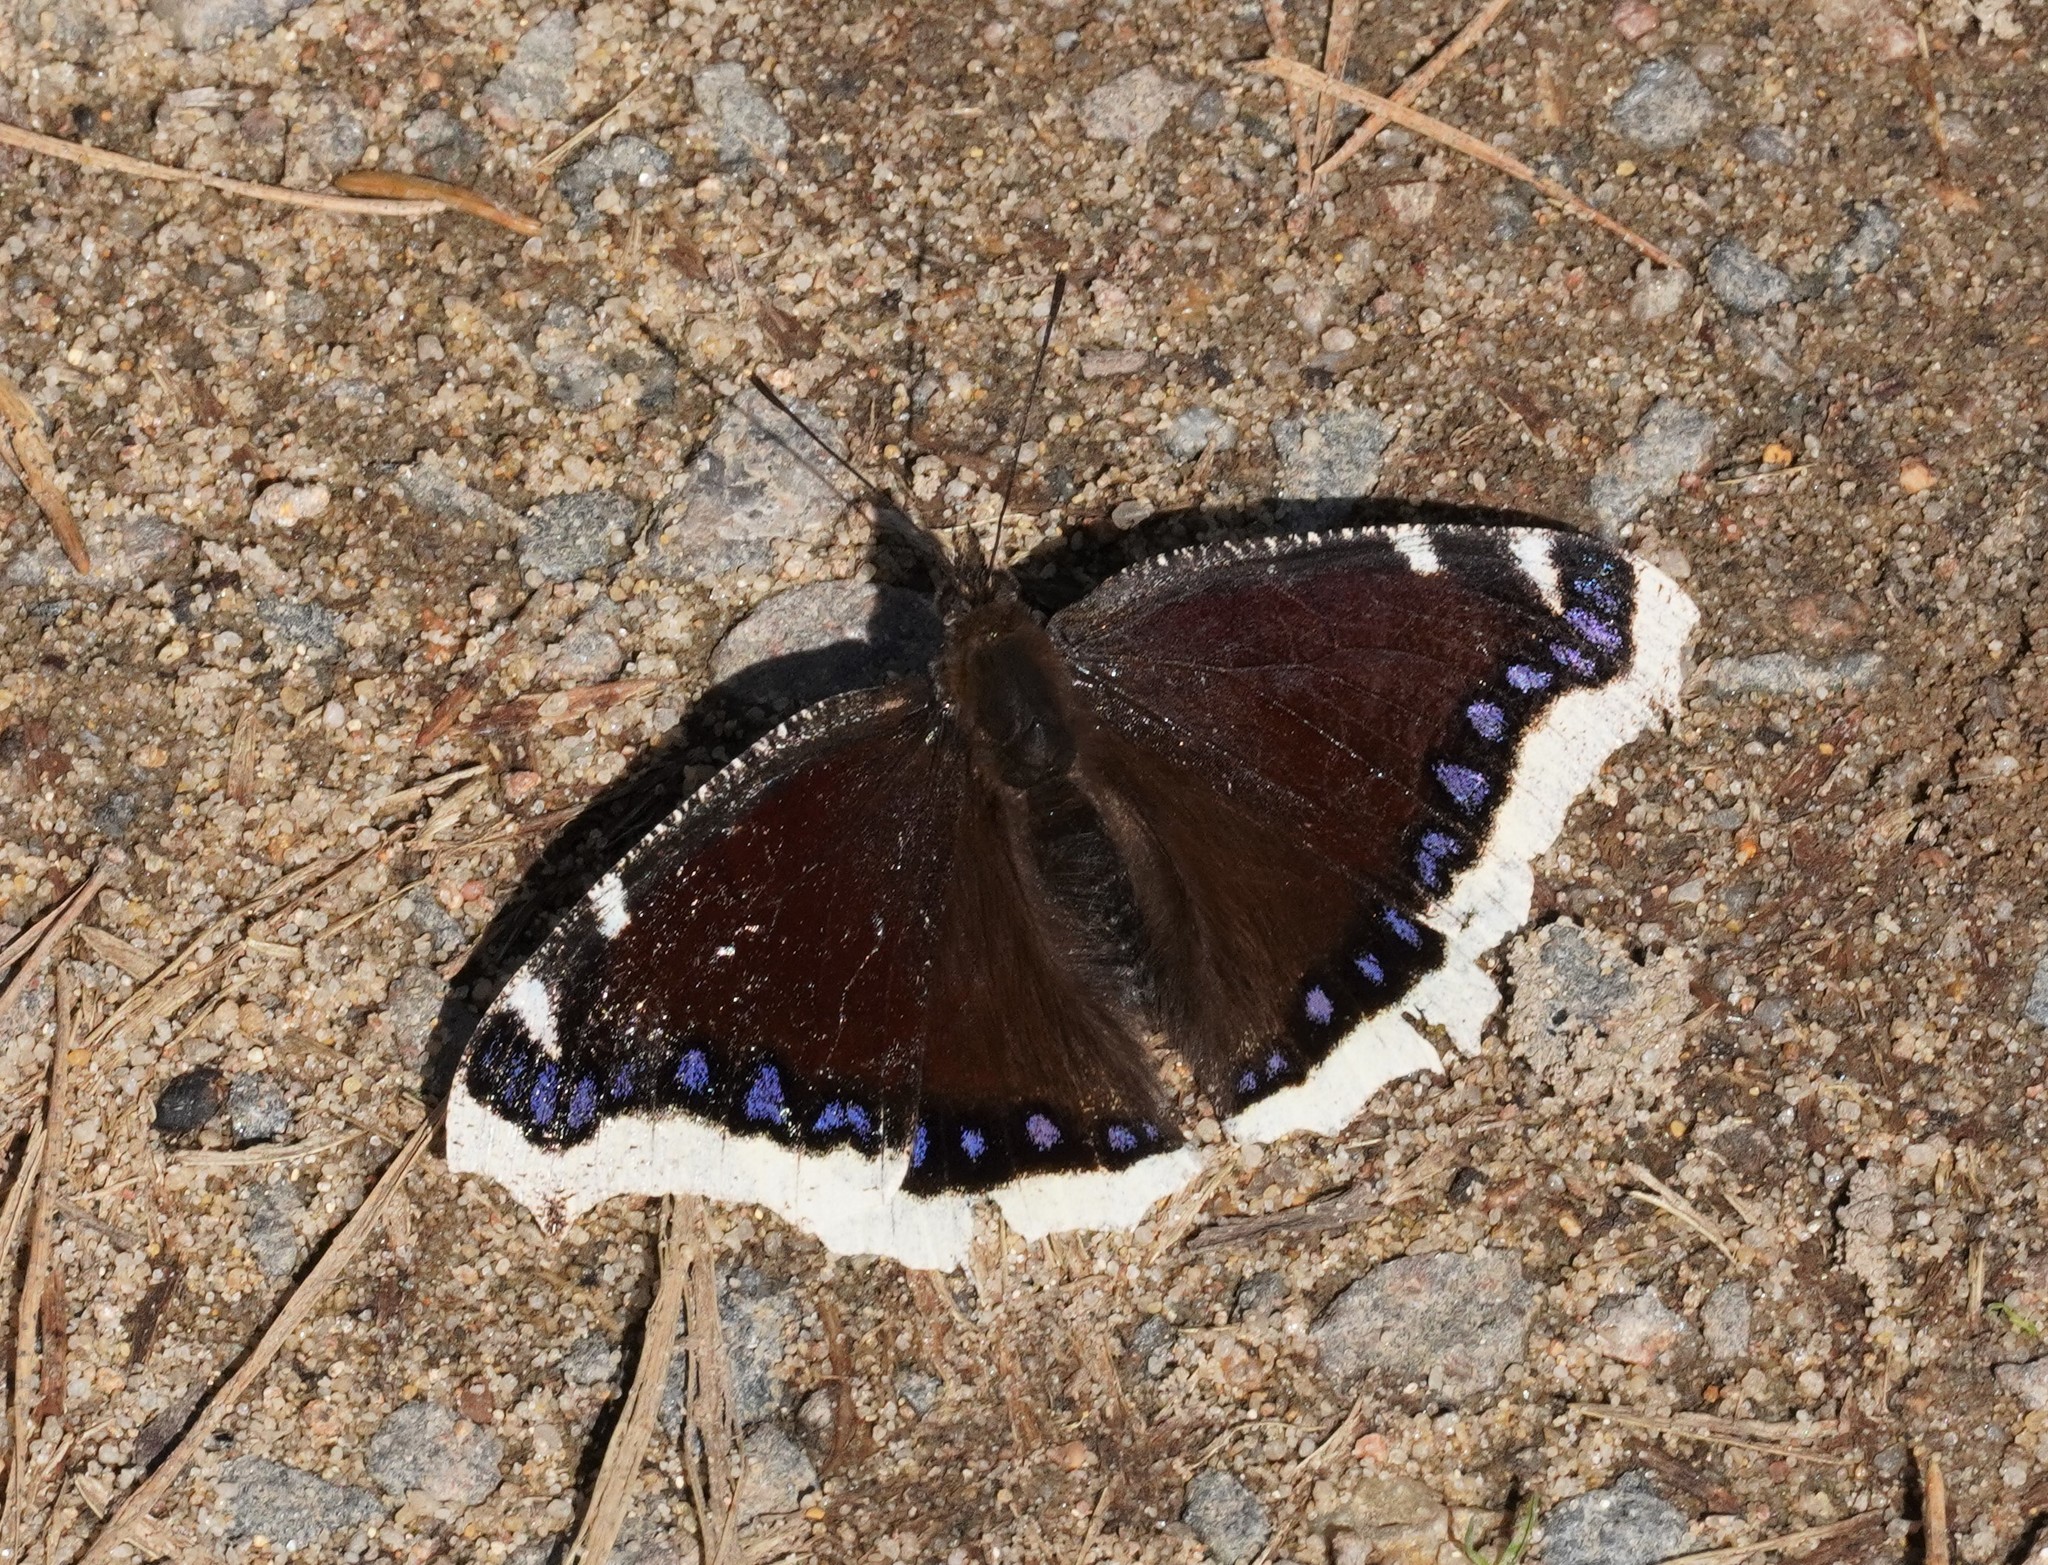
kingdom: Animalia
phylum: Arthropoda
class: Insecta
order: Lepidoptera
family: Nymphalidae
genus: Nymphalis
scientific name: Nymphalis antiopa
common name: Camberwell beauty
